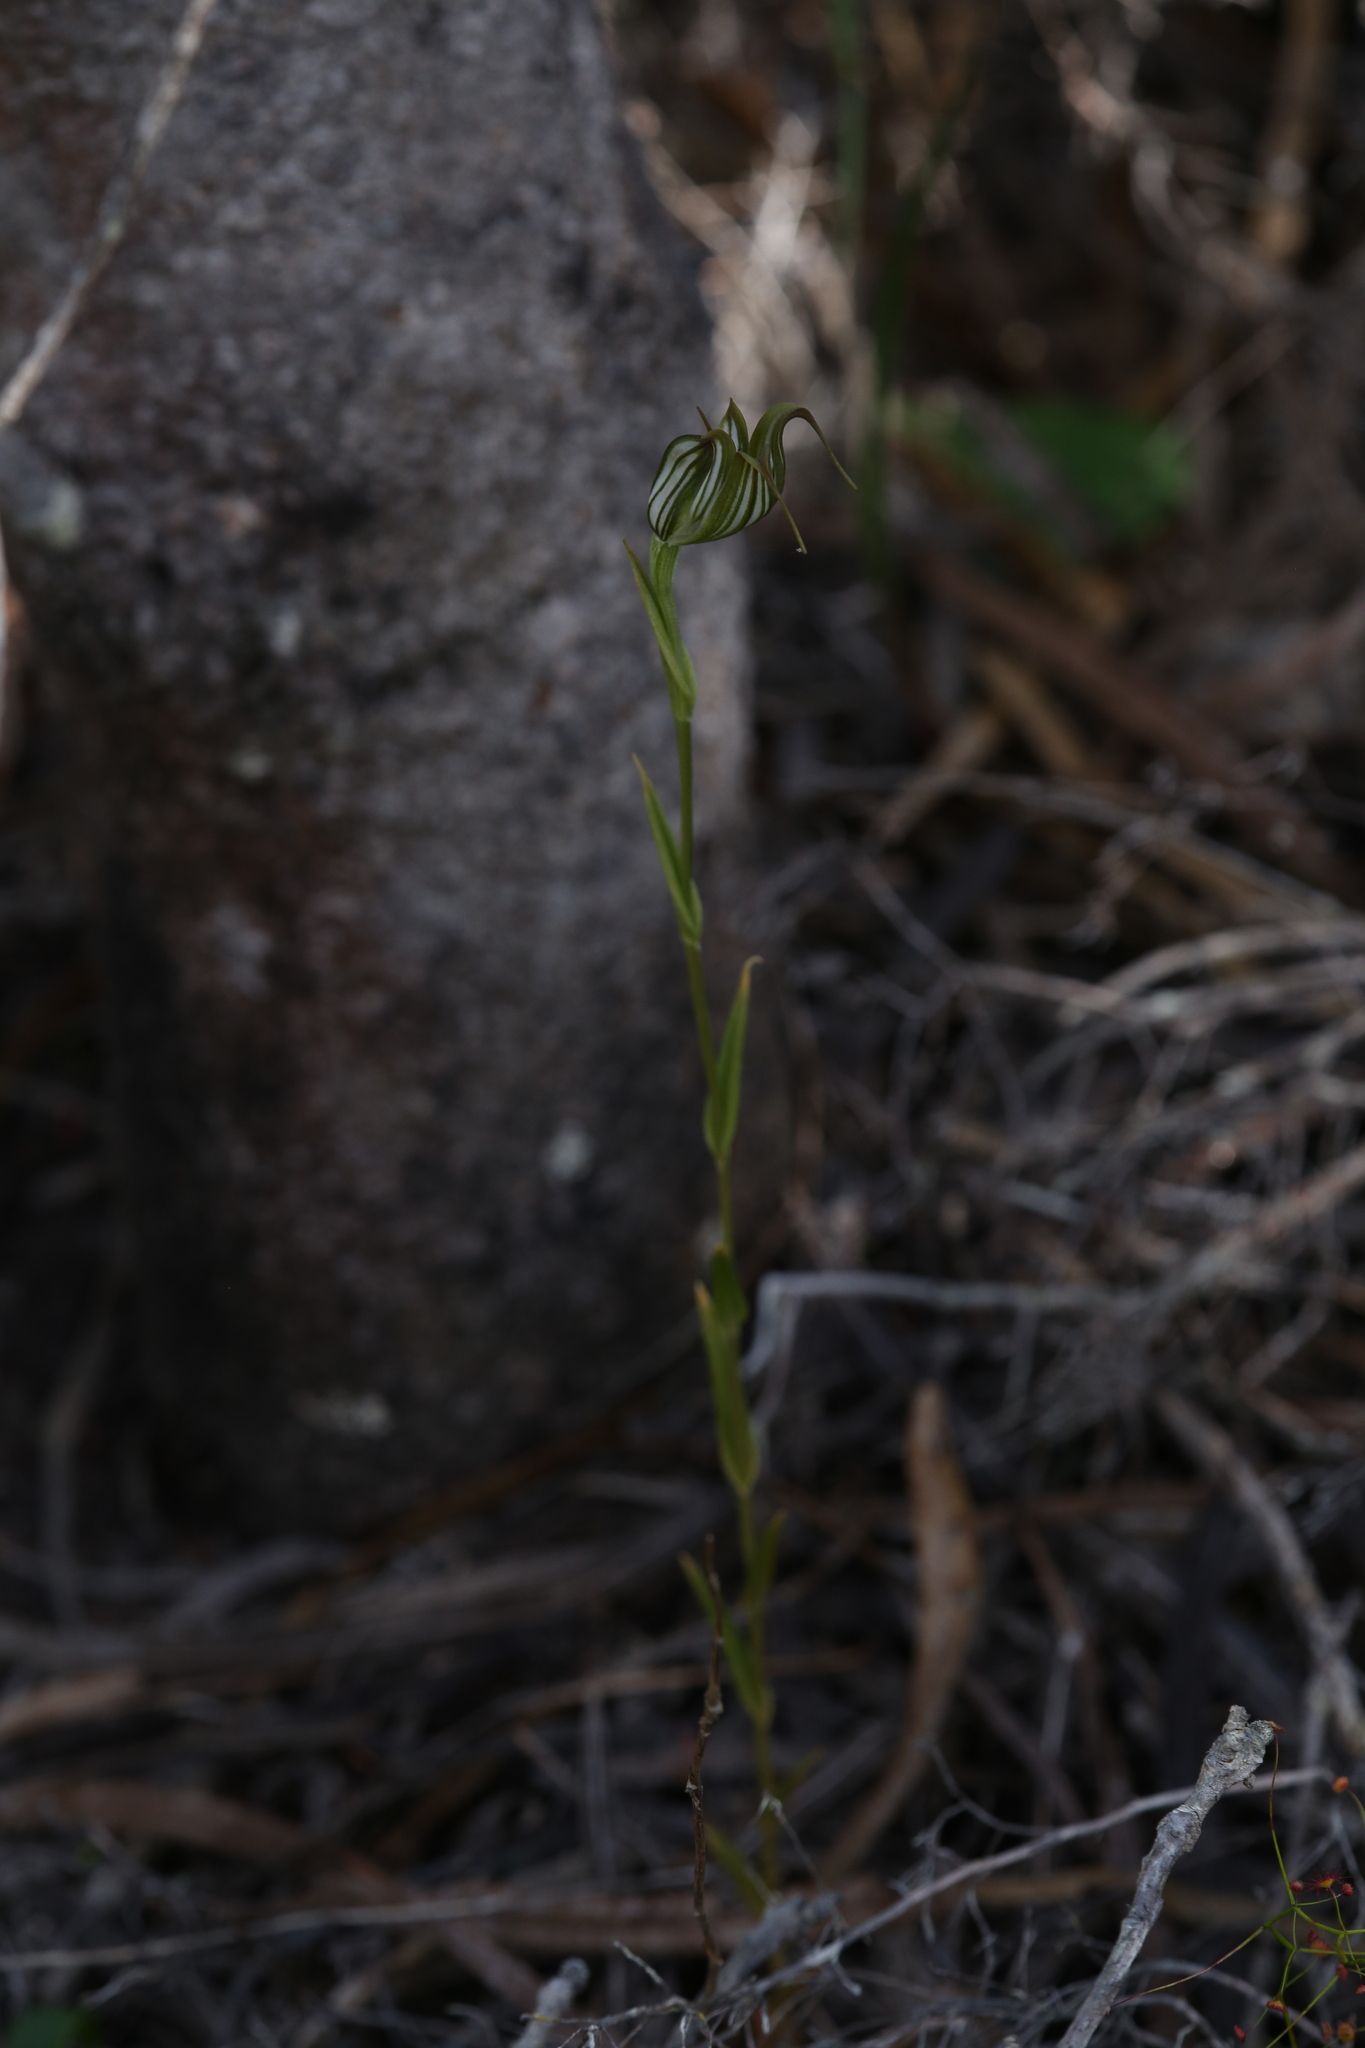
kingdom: Plantae
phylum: Tracheophyta
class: Liliopsida
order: Asparagales
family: Orchidaceae
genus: Pterostylis
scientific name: Pterostylis recurva
